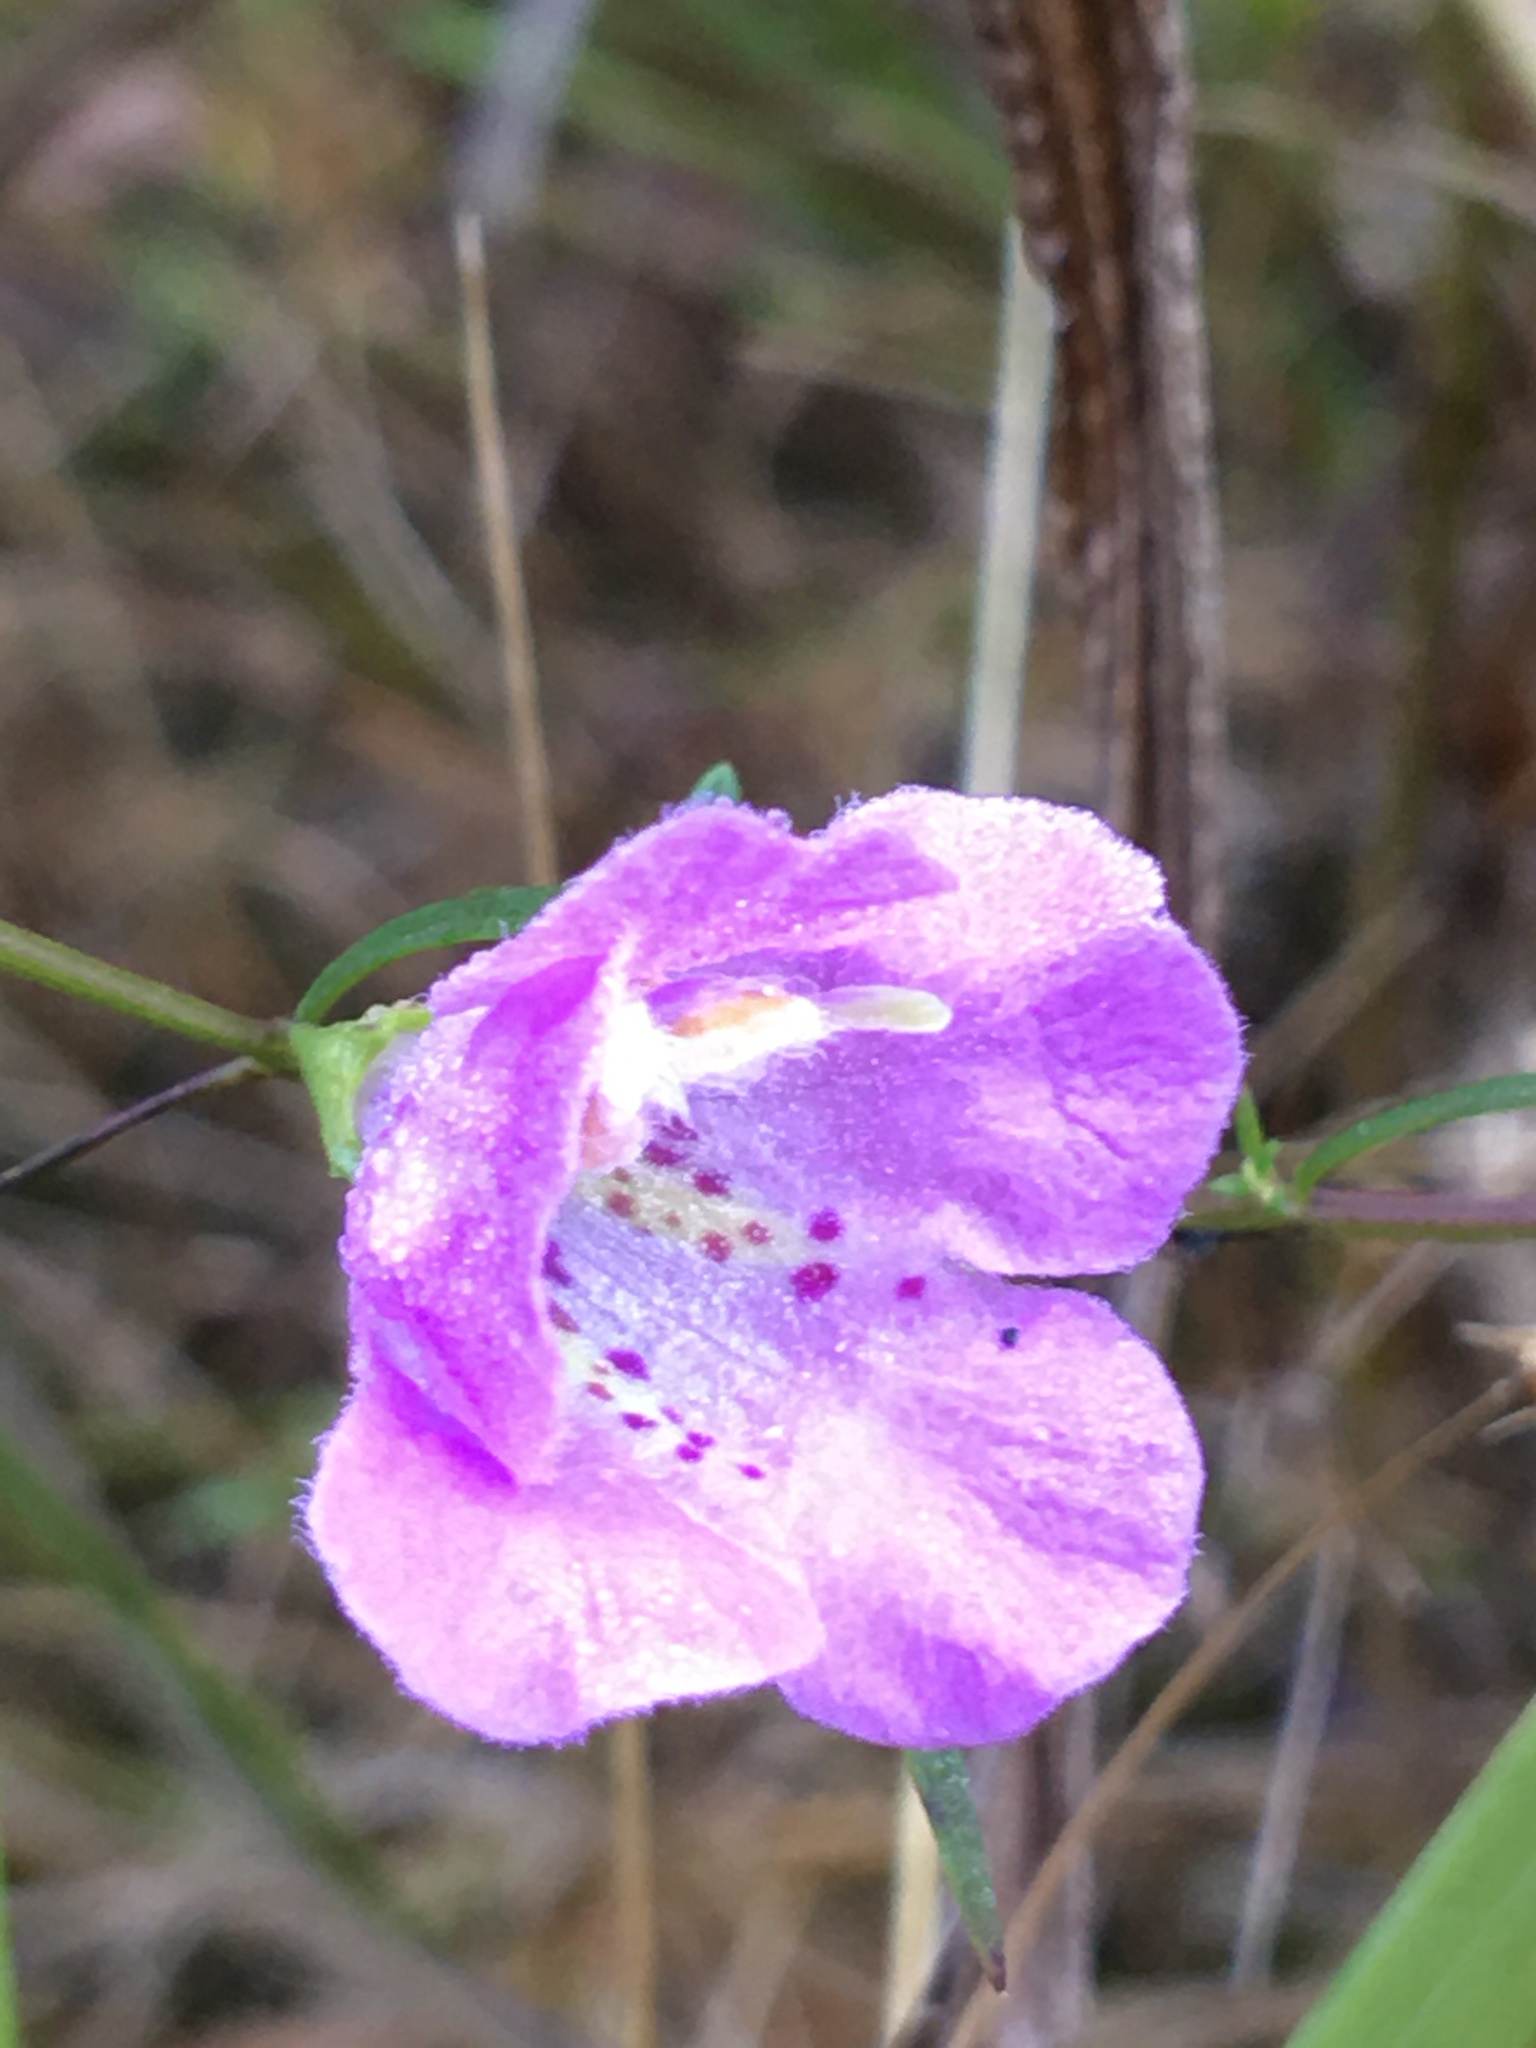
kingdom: Plantae
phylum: Tracheophyta
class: Magnoliopsida
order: Lamiales
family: Orobanchaceae
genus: Agalinis
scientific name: Agalinis tenuifolia
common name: Slender agalinis
